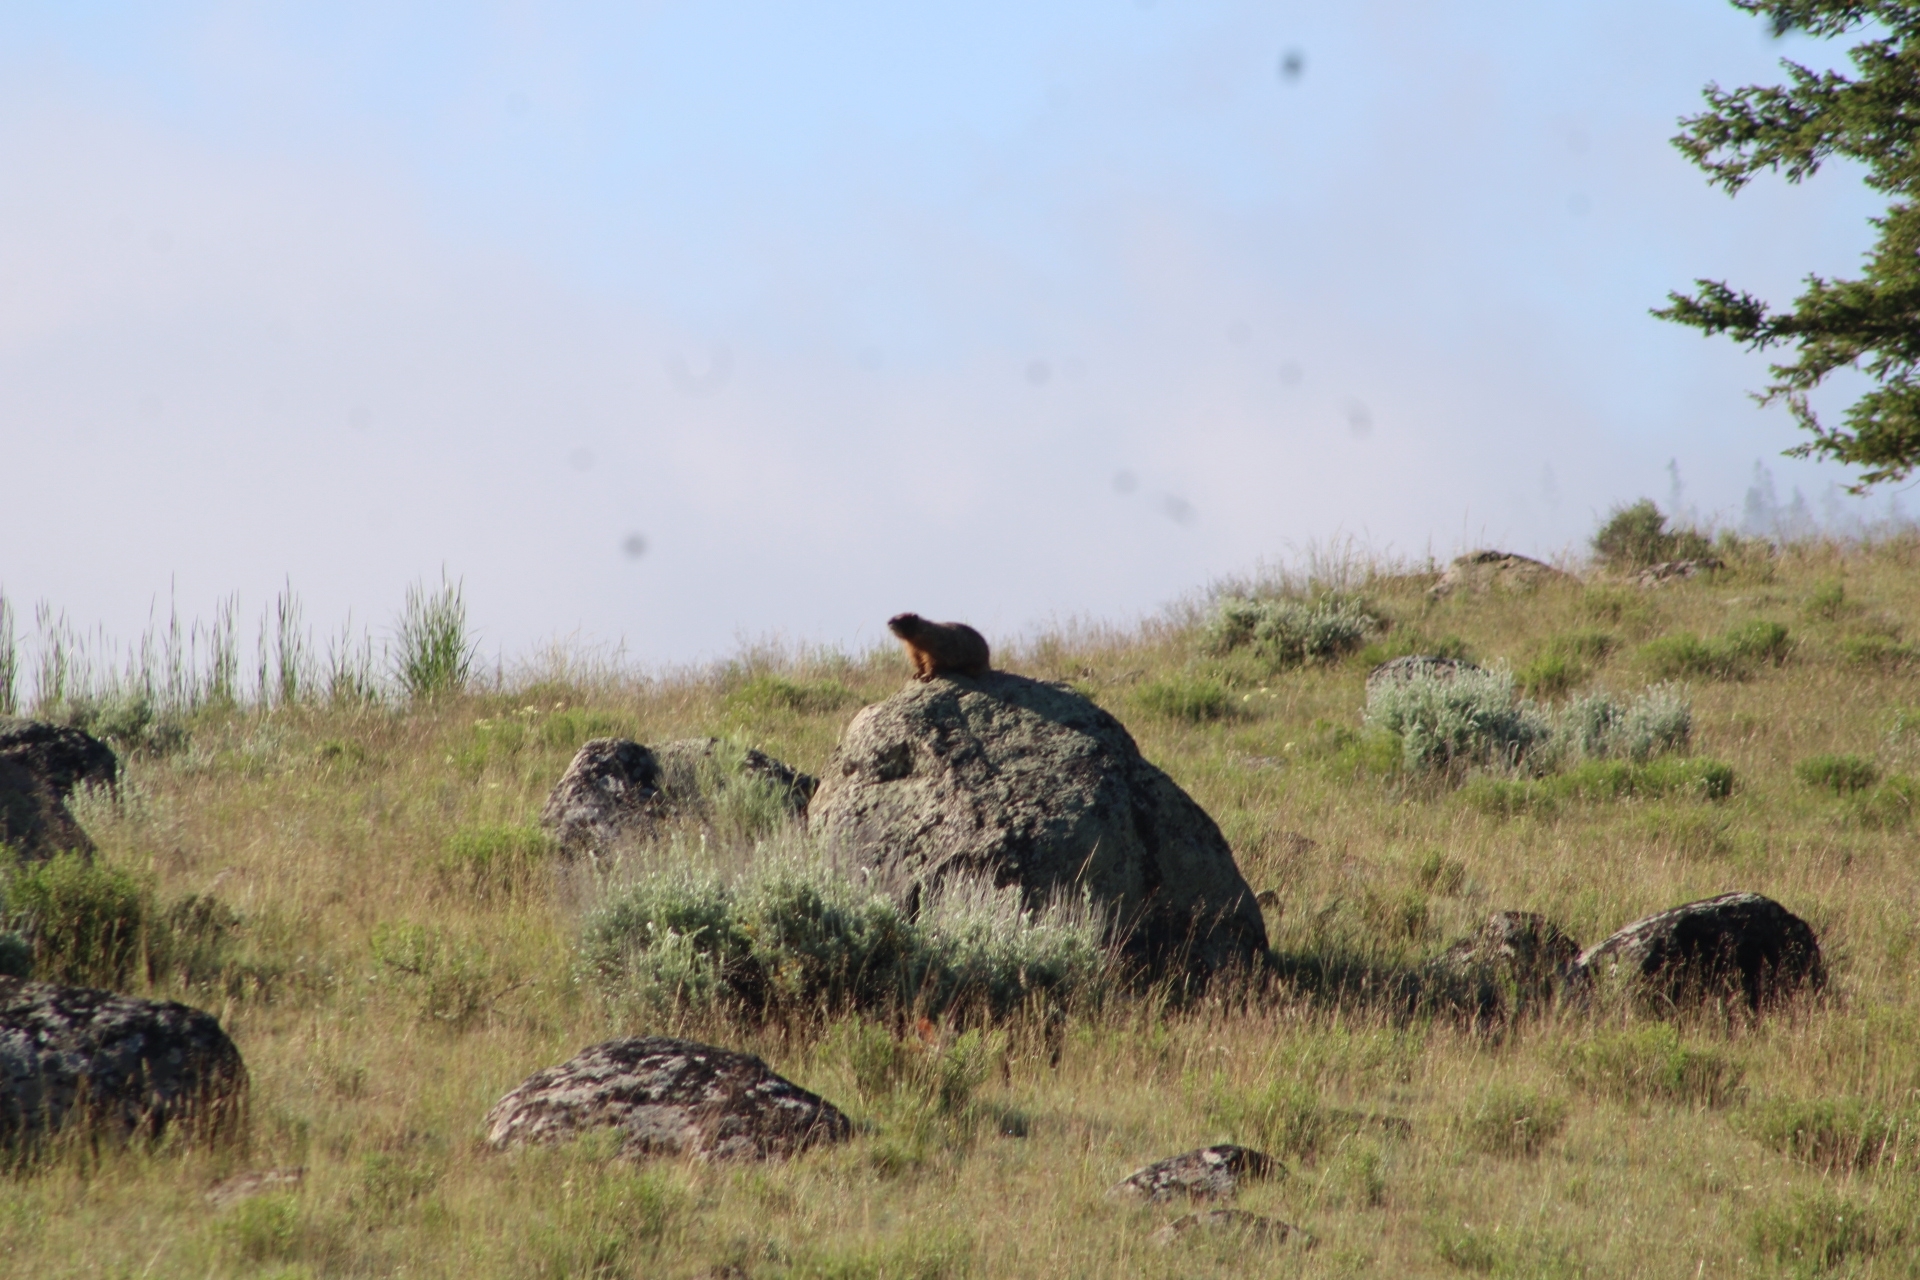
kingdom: Animalia
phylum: Chordata
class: Mammalia
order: Rodentia
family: Sciuridae
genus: Marmota
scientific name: Marmota flaviventris
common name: Yellow-bellied marmot
